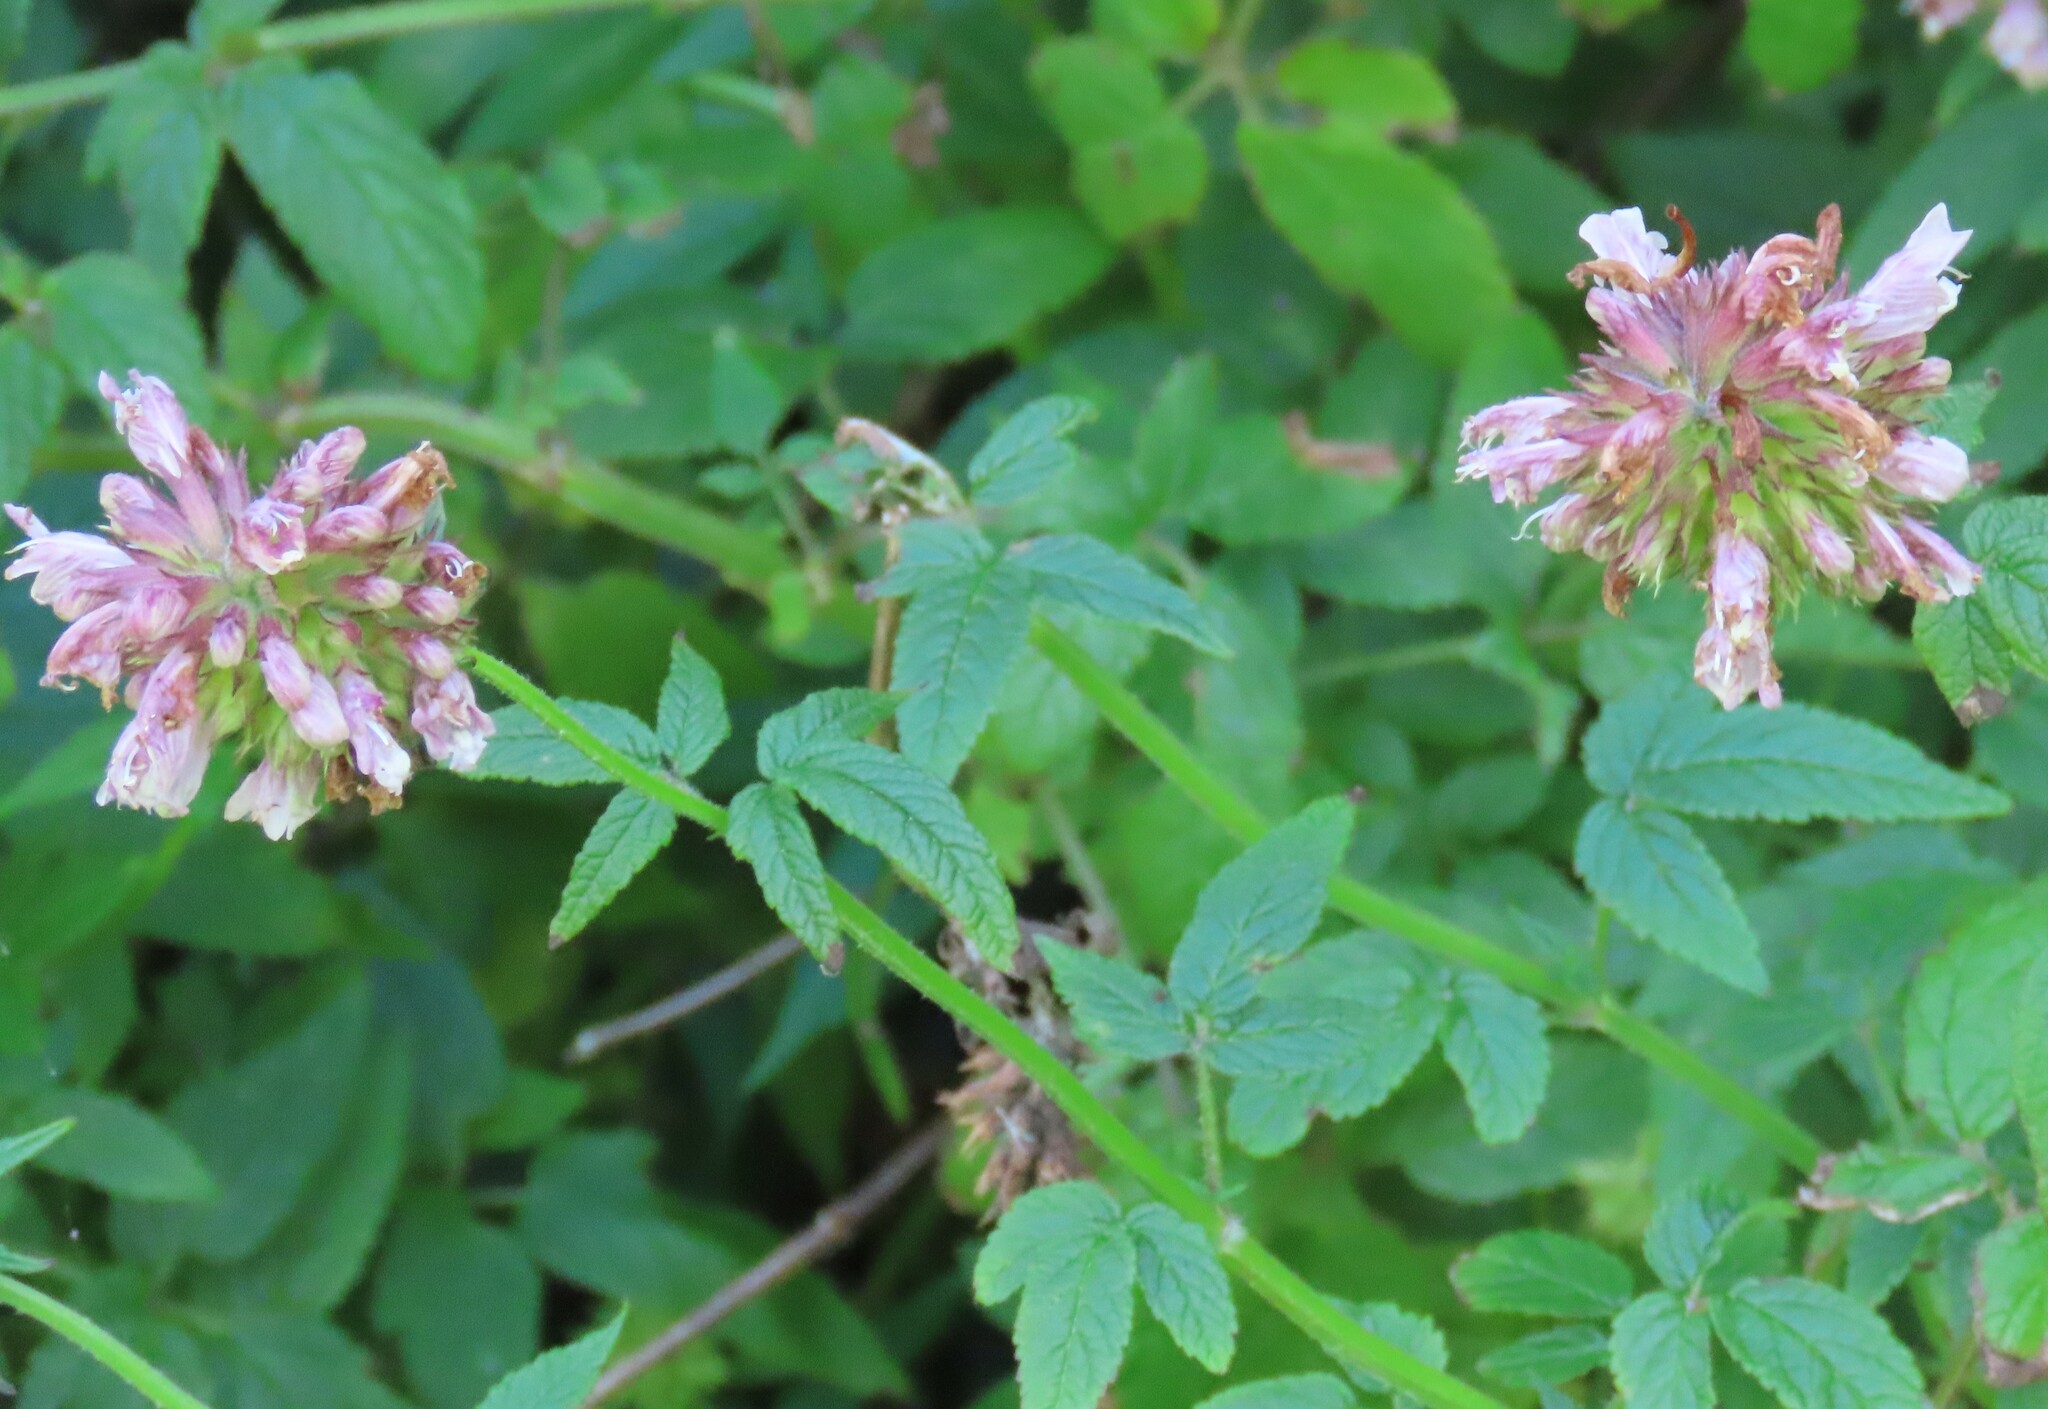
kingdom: Plantae
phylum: Tracheophyta
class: Magnoliopsida
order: Lamiales
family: Lamiaceae
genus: Cedronella
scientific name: Cedronella canariensis
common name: Canary islands balm
